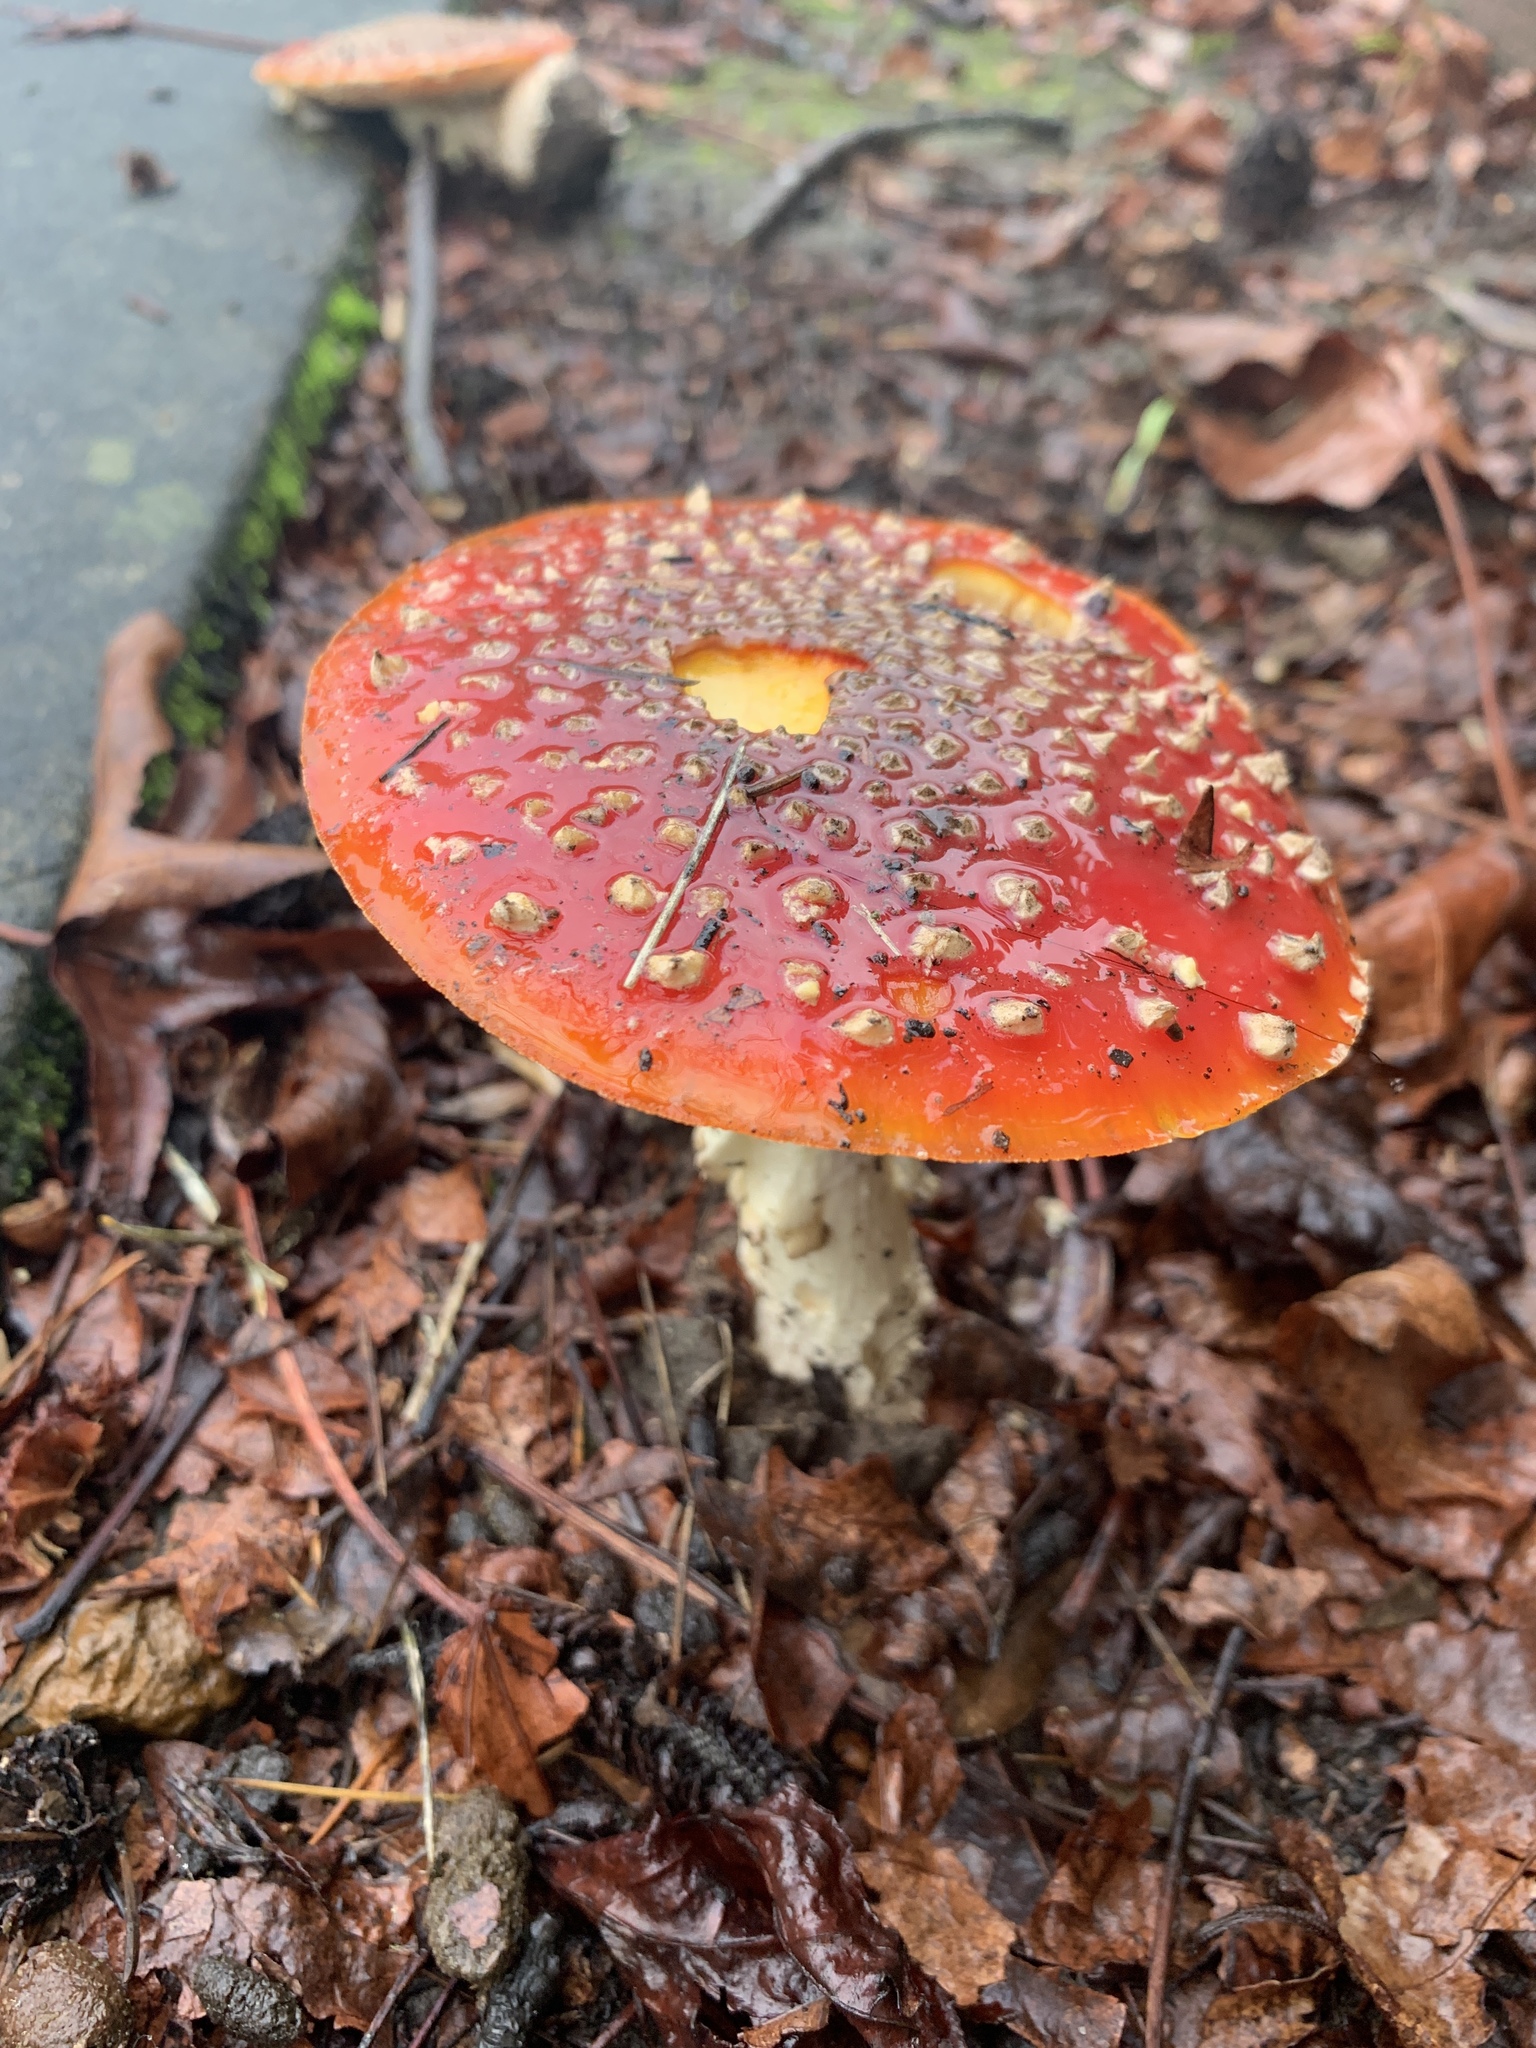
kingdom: Fungi
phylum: Basidiomycota
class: Agaricomycetes
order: Agaricales
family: Amanitaceae
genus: Amanita
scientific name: Amanita muscaria
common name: Fly agaric
